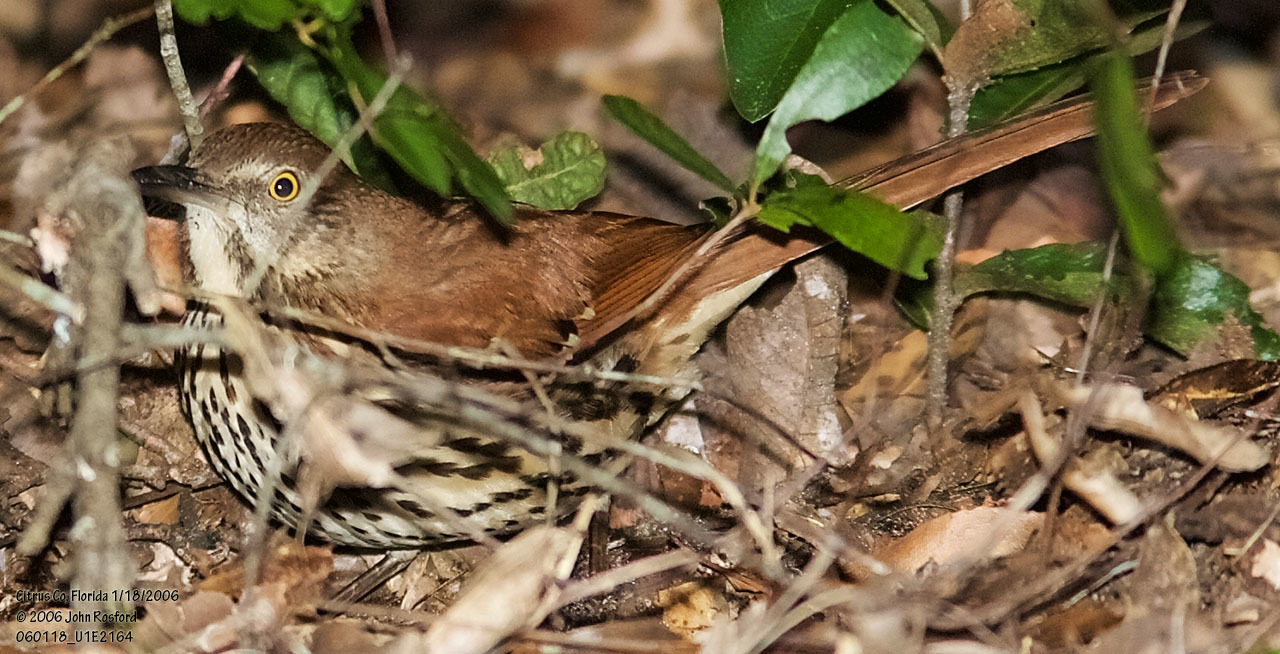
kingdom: Animalia
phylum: Chordata
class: Aves
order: Passeriformes
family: Mimidae
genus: Toxostoma
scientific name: Toxostoma rufum
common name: Brown thrasher
